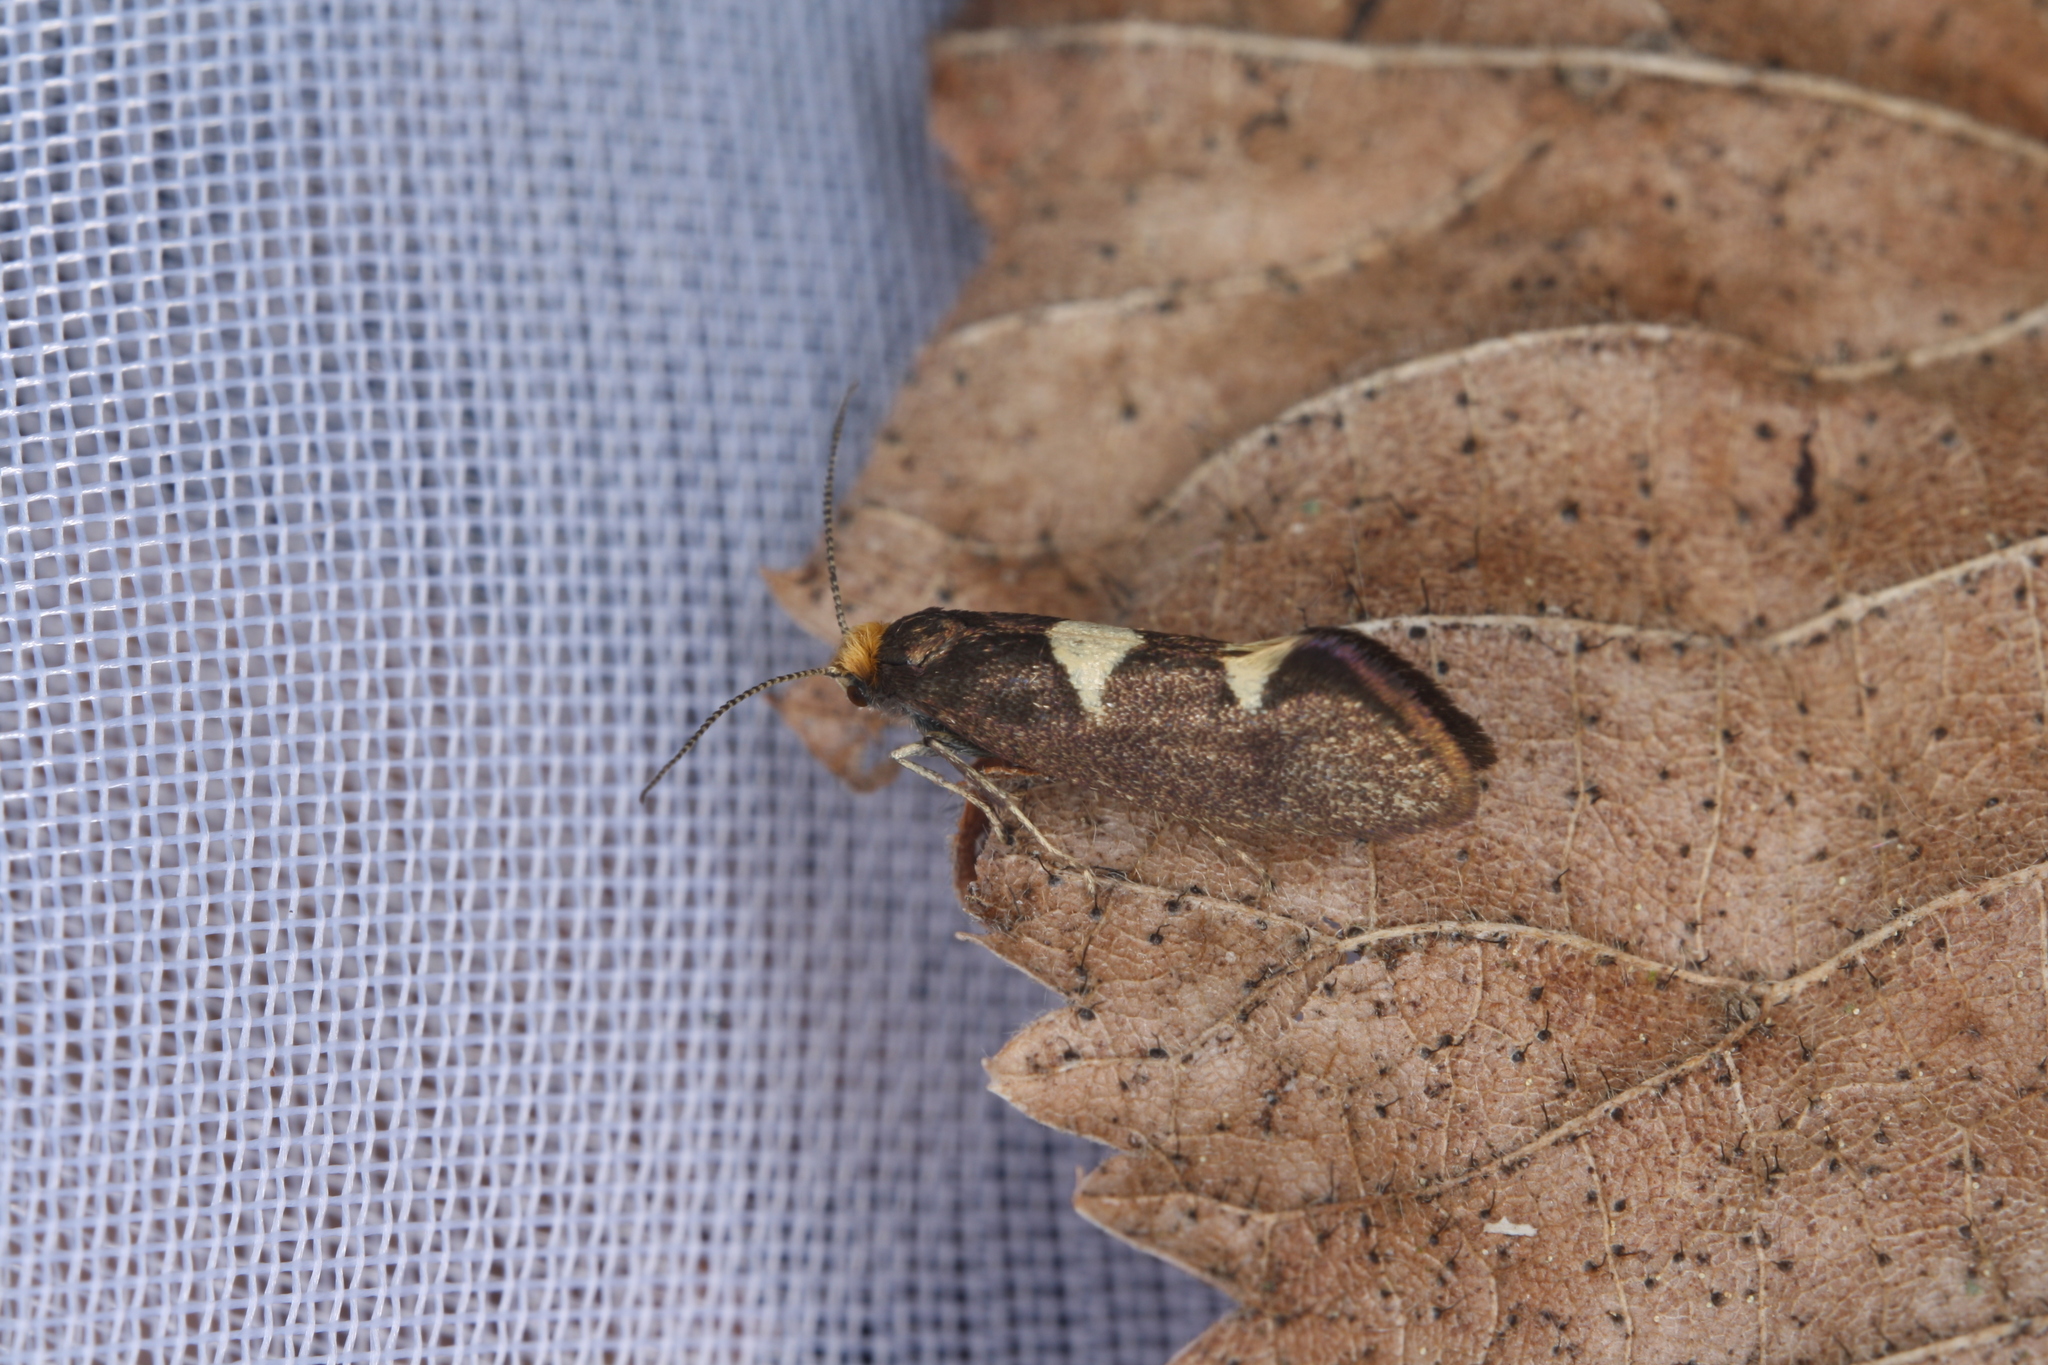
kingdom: Animalia
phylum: Arthropoda
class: Insecta
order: Lepidoptera
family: Incurvariidae
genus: Incurvaria
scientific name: Incurvaria masculella
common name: Feathered leaf-cutter
